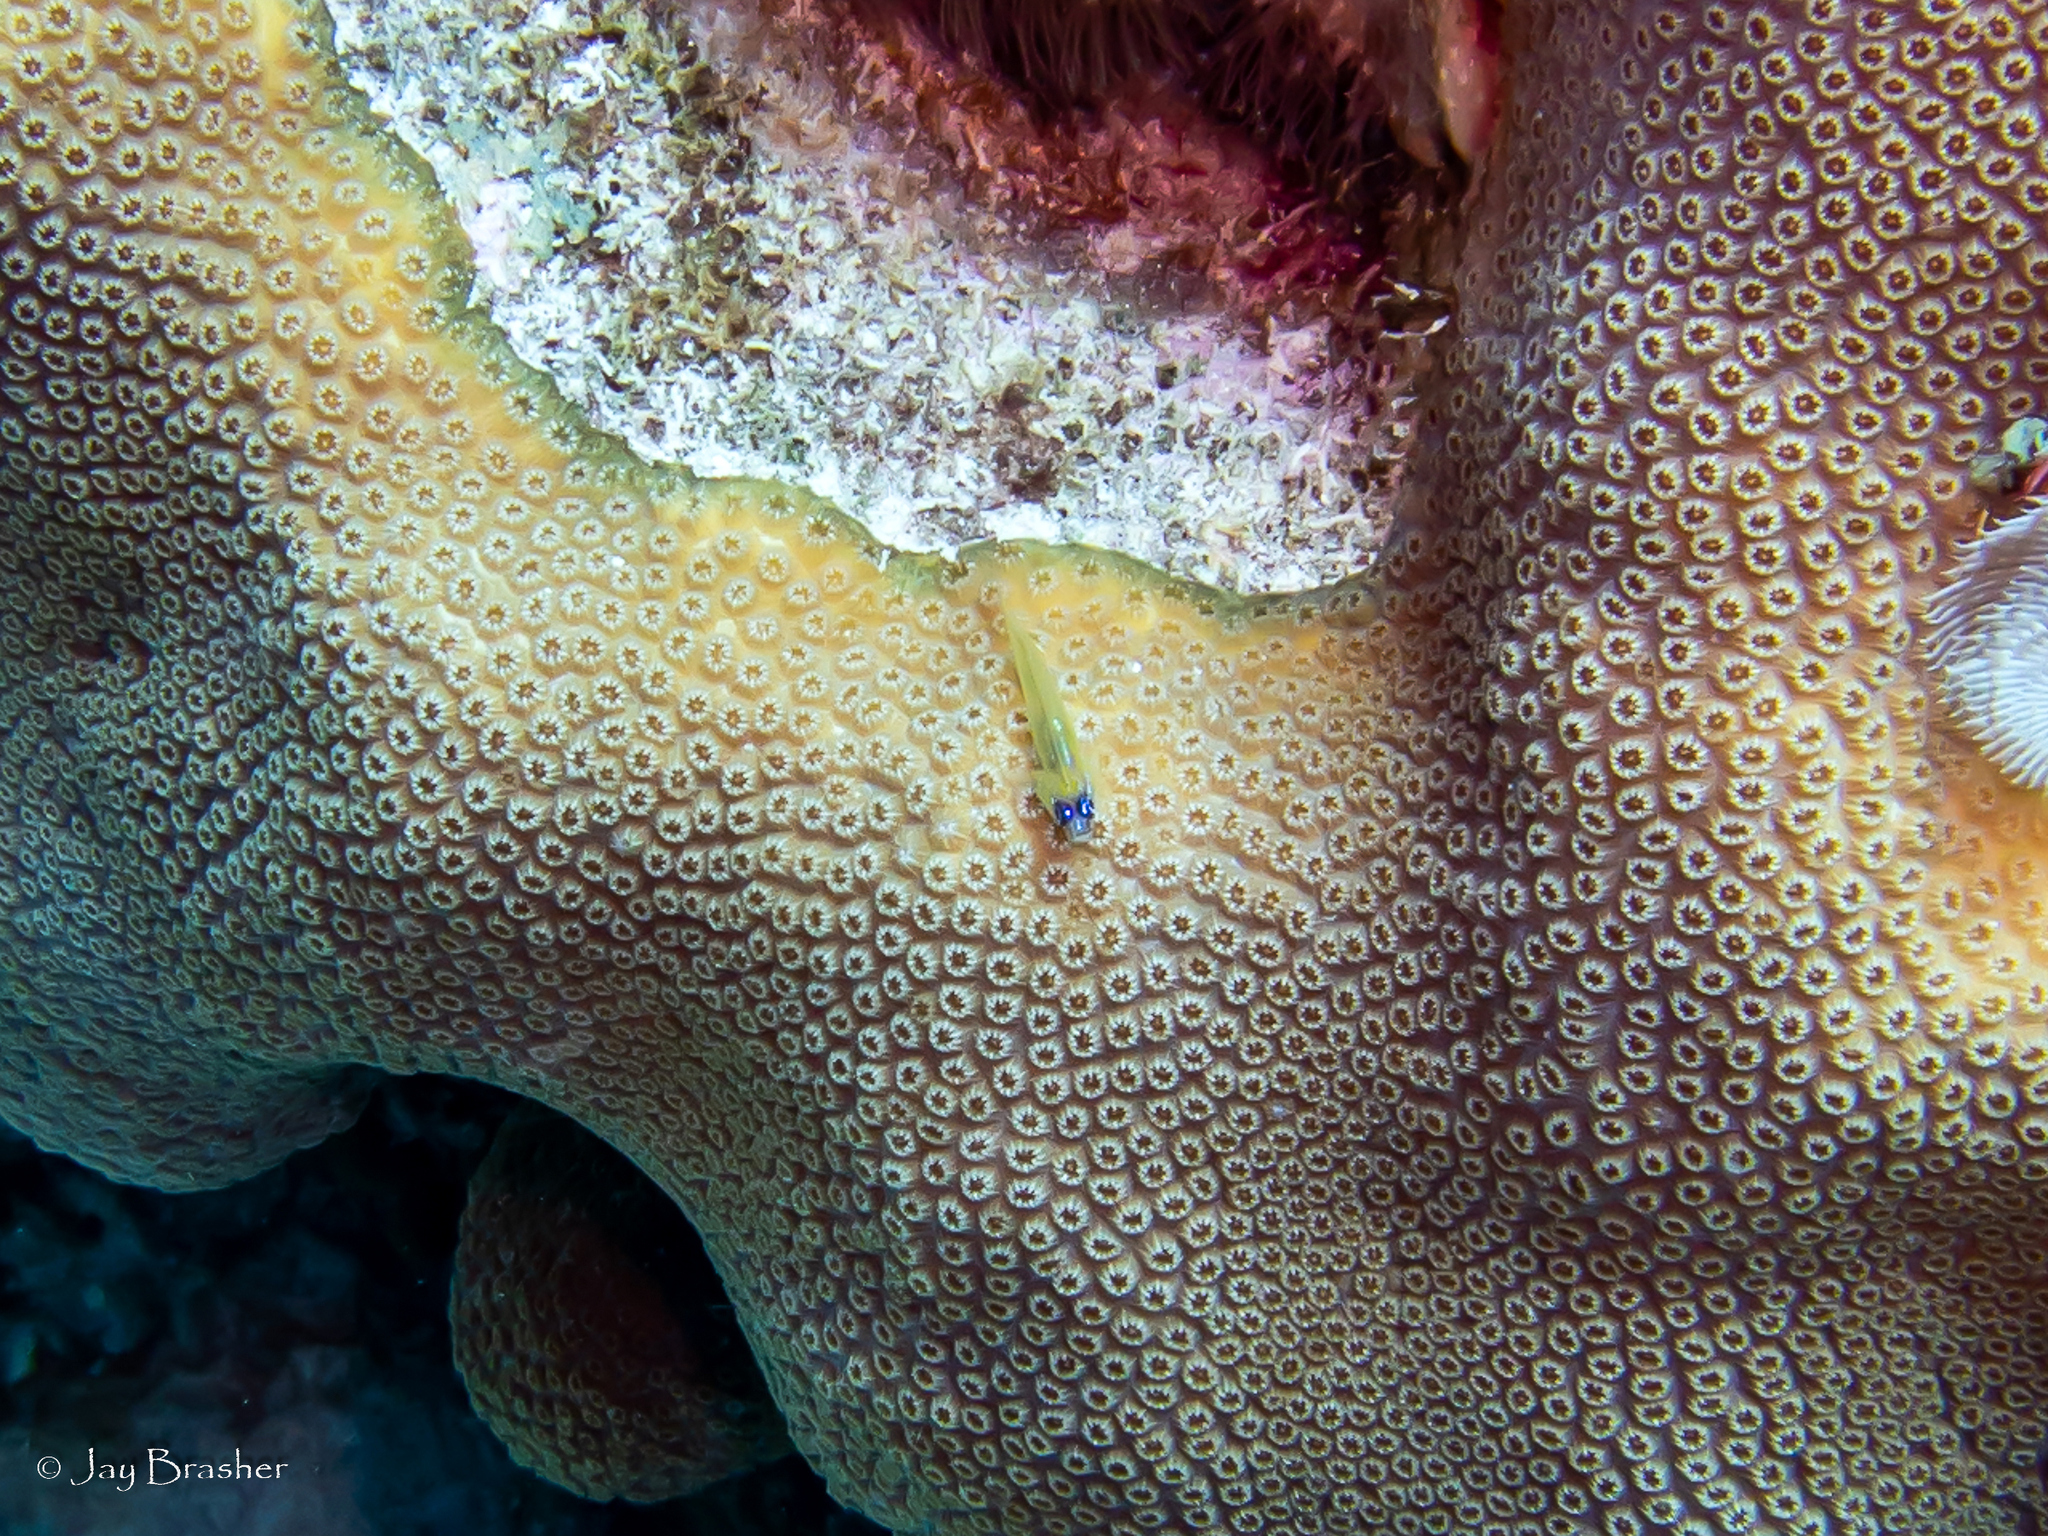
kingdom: Animalia
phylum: Chordata
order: Perciformes
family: Gobiidae
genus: Coryphopterus
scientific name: Coryphopterus lipernes
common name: Peppermint goby
